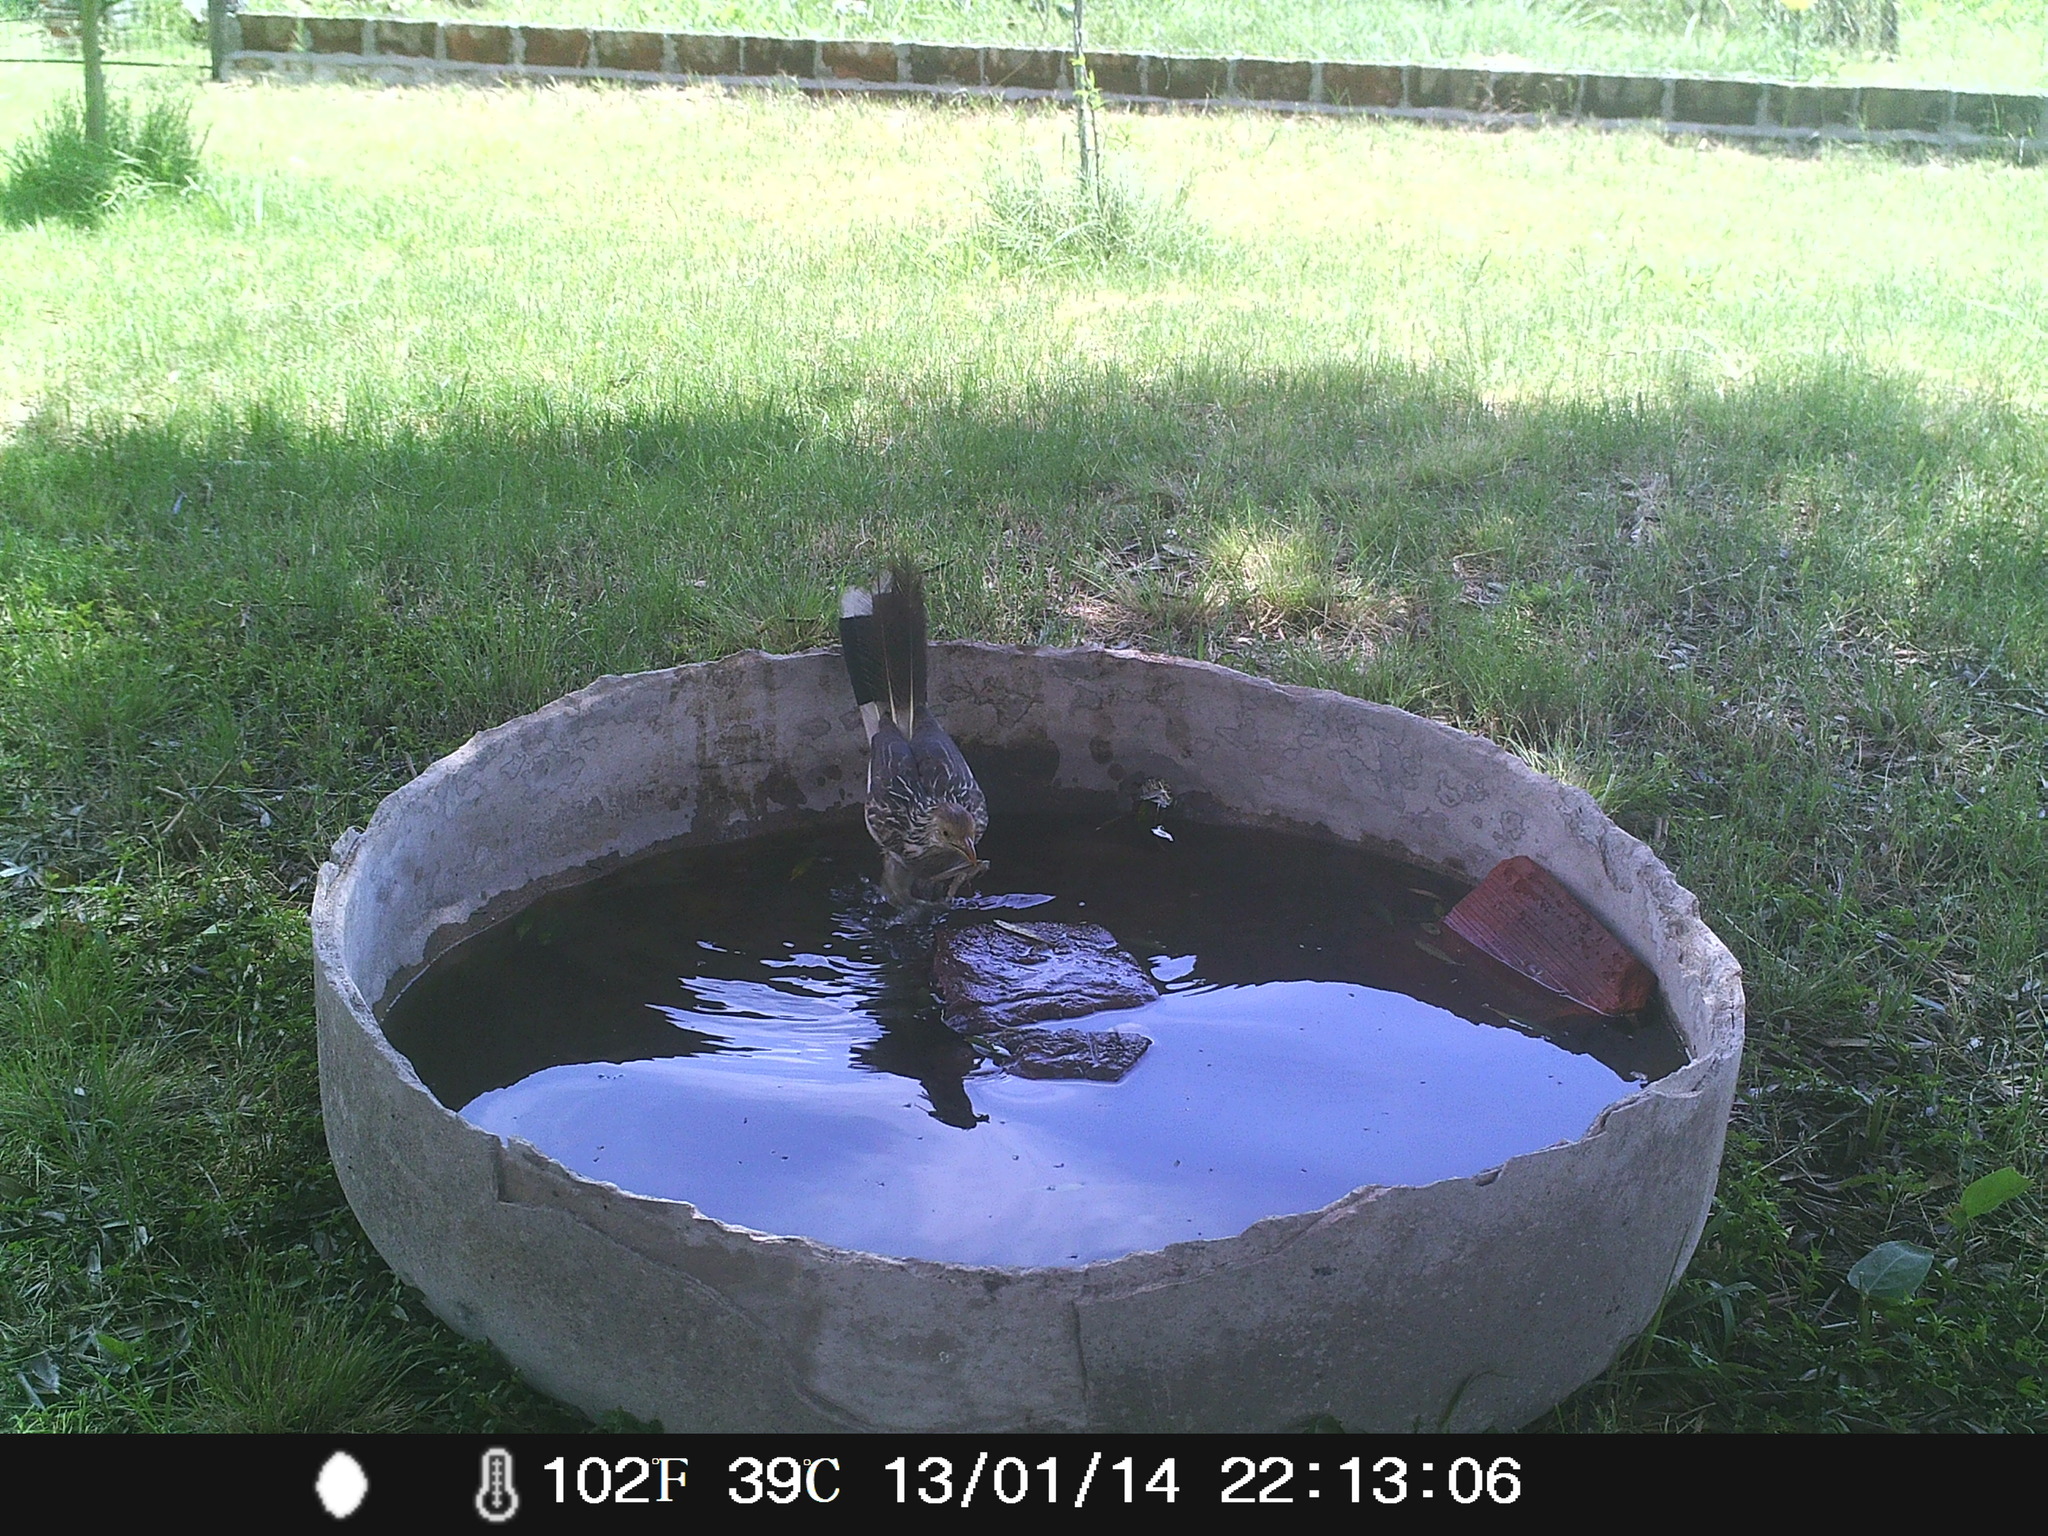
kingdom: Animalia
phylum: Chordata
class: Aves
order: Cuculiformes
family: Cuculidae
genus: Guira
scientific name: Guira guira
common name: Guira cuckoo
